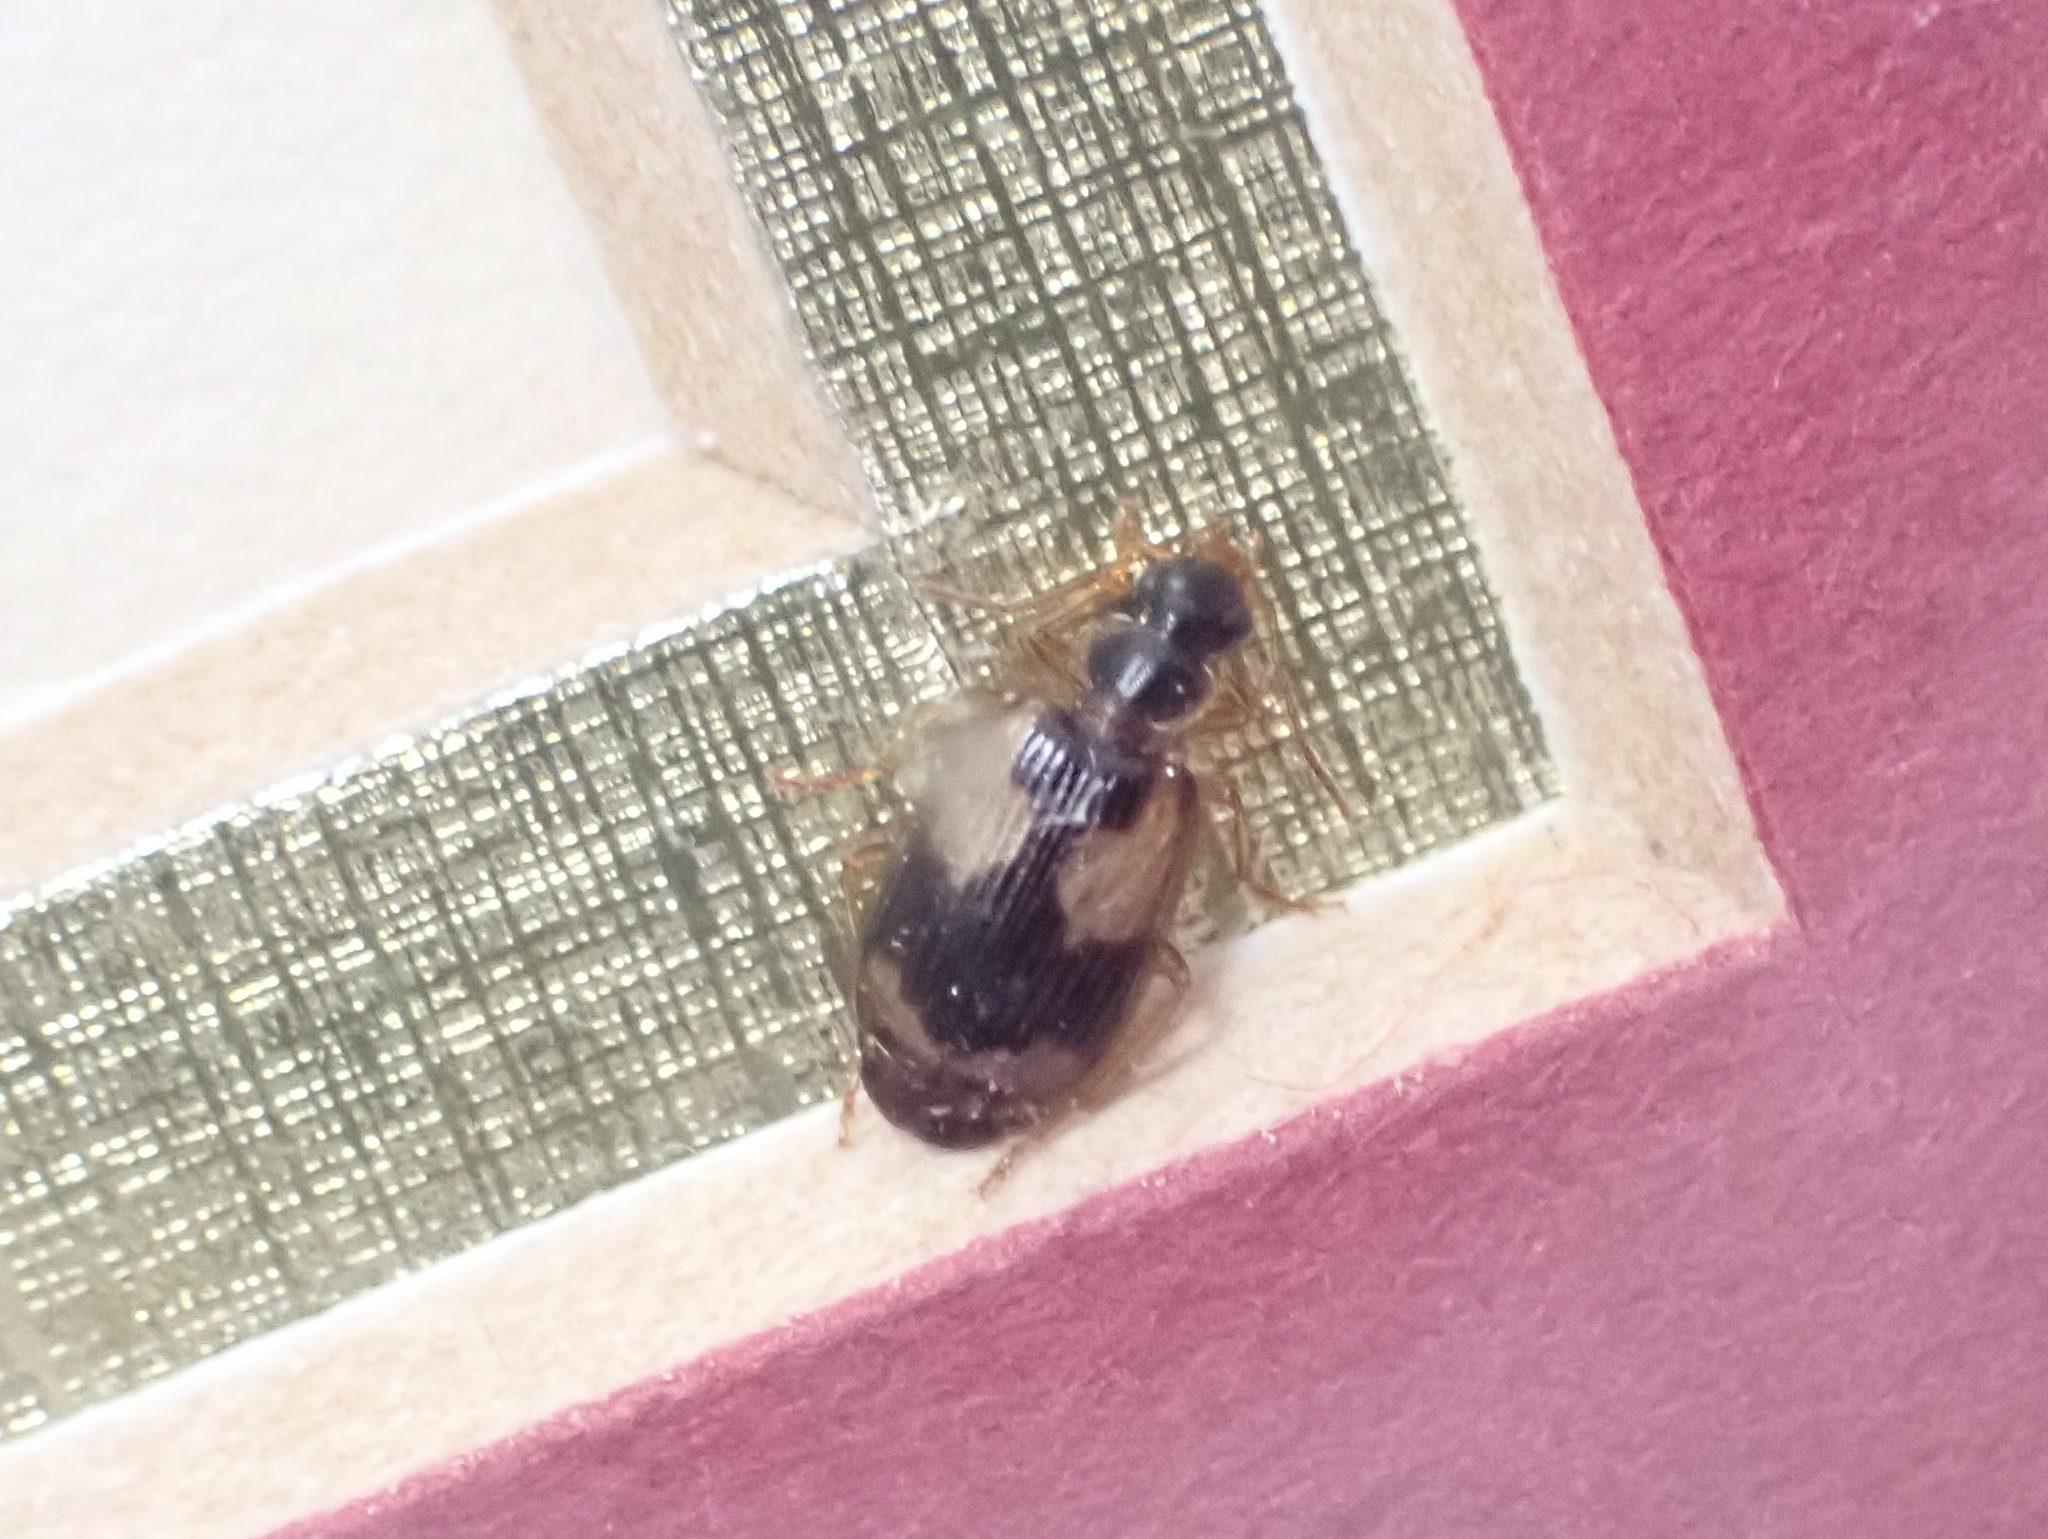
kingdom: Animalia
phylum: Arthropoda
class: Insecta
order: Coleoptera
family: Carabidae
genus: Lebia
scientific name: Lebia fuscata
